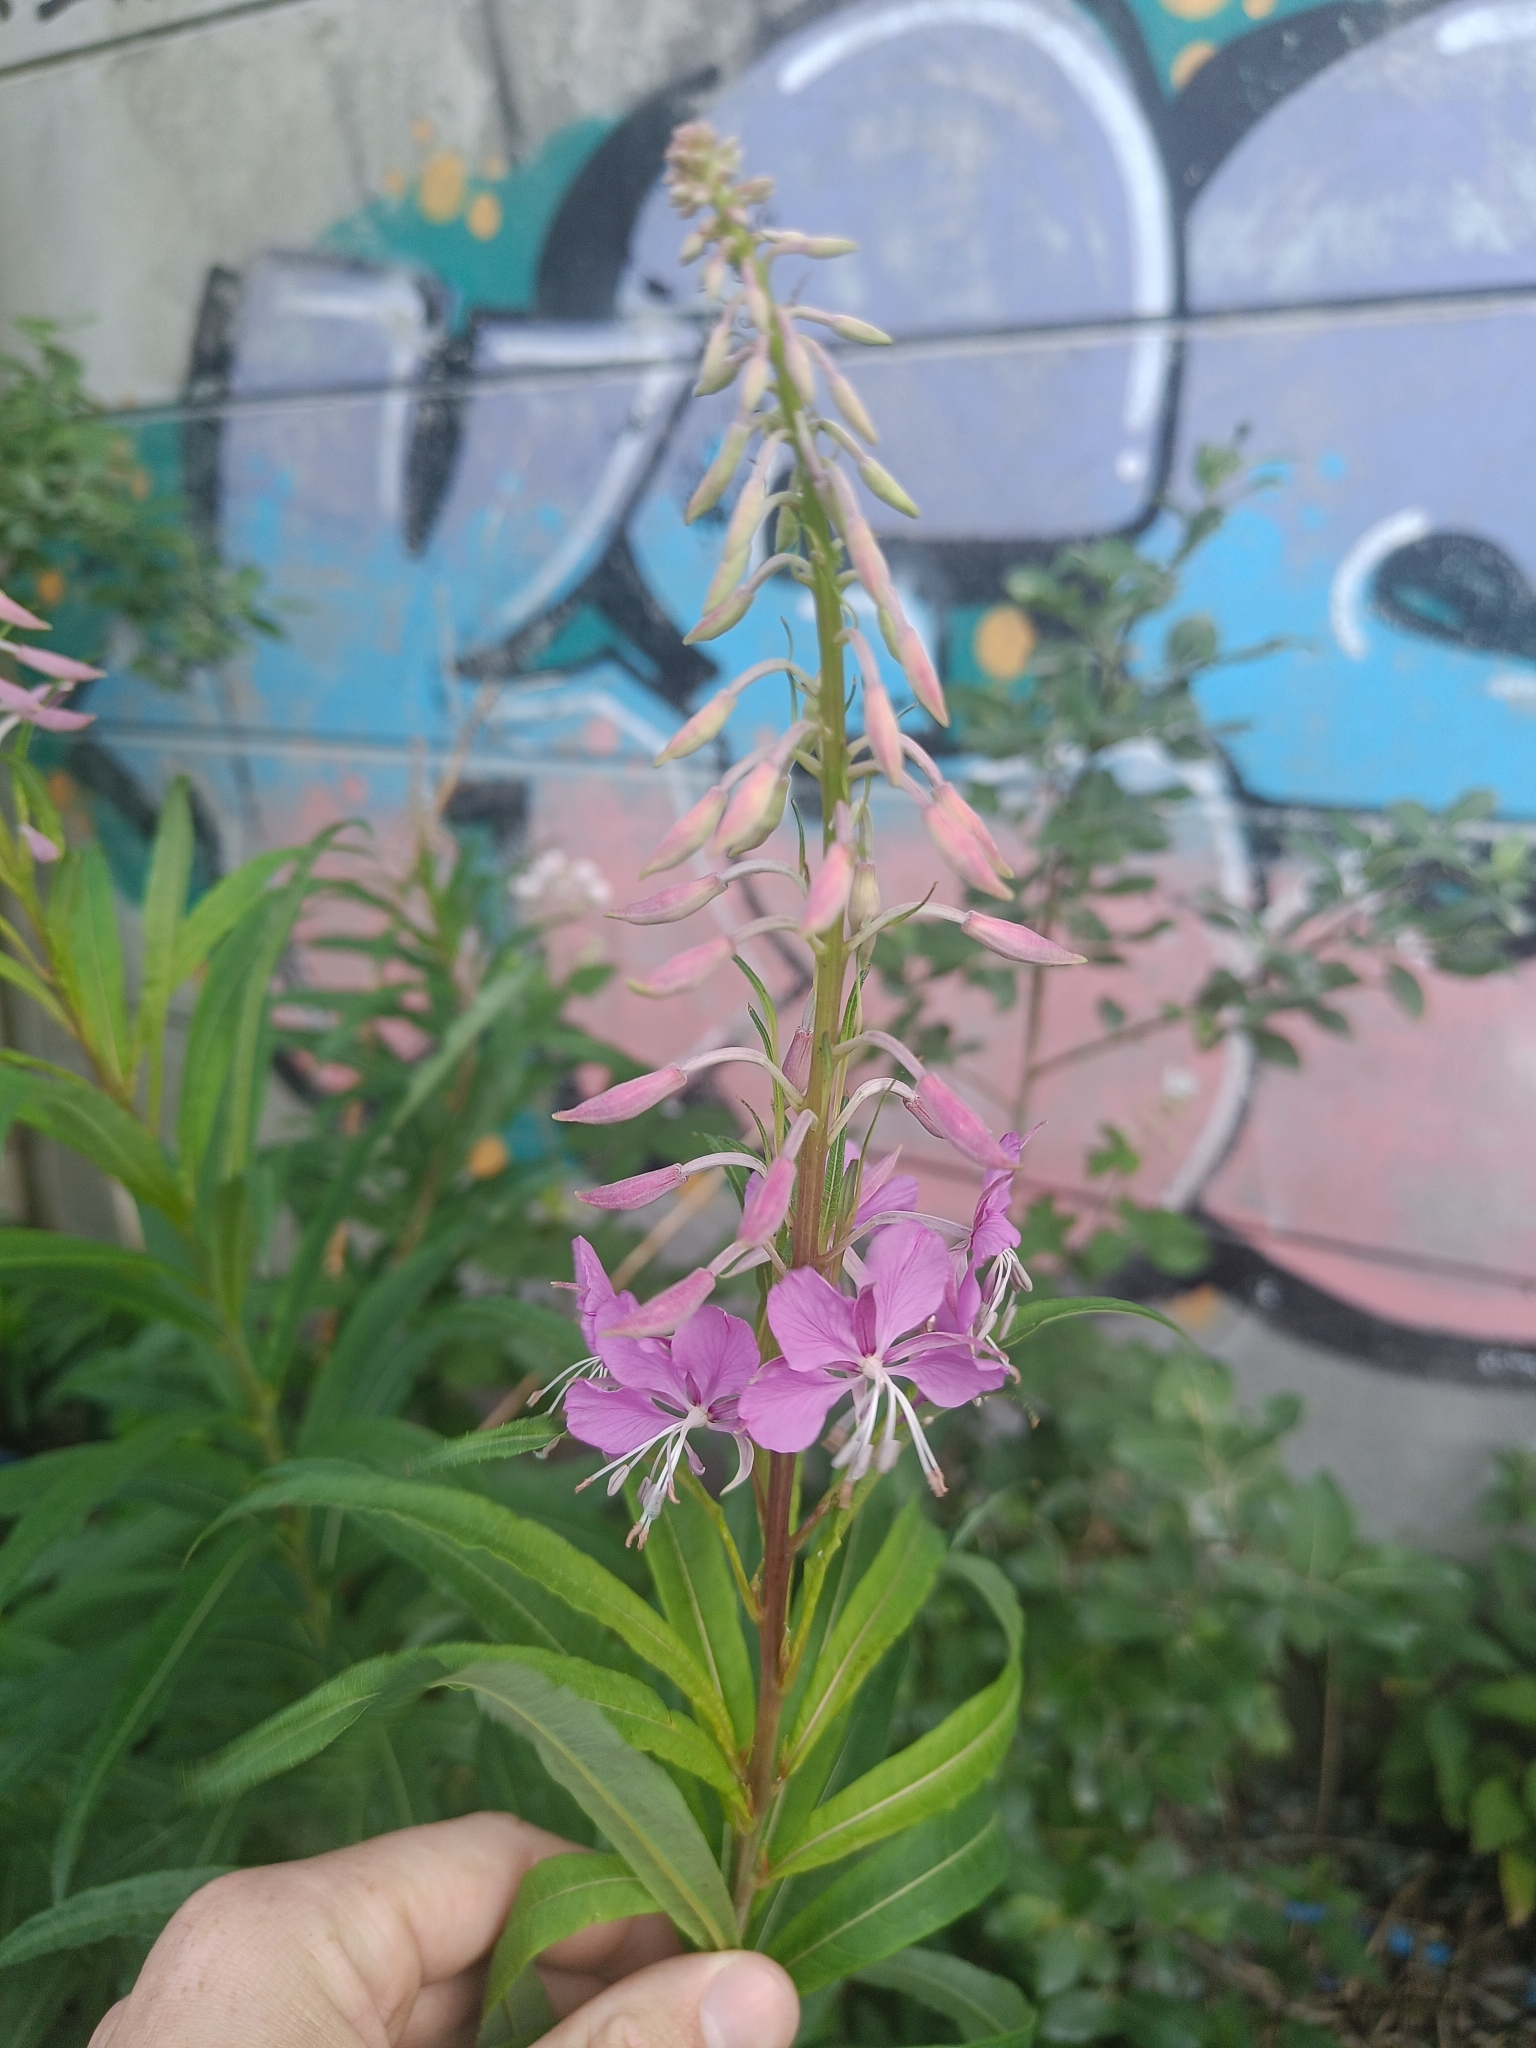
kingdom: Plantae
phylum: Tracheophyta
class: Magnoliopsida
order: Myrtales
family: Onagraceae
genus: Chamaenerion
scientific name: Chamaenerion angustifolium
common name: Fireweed
